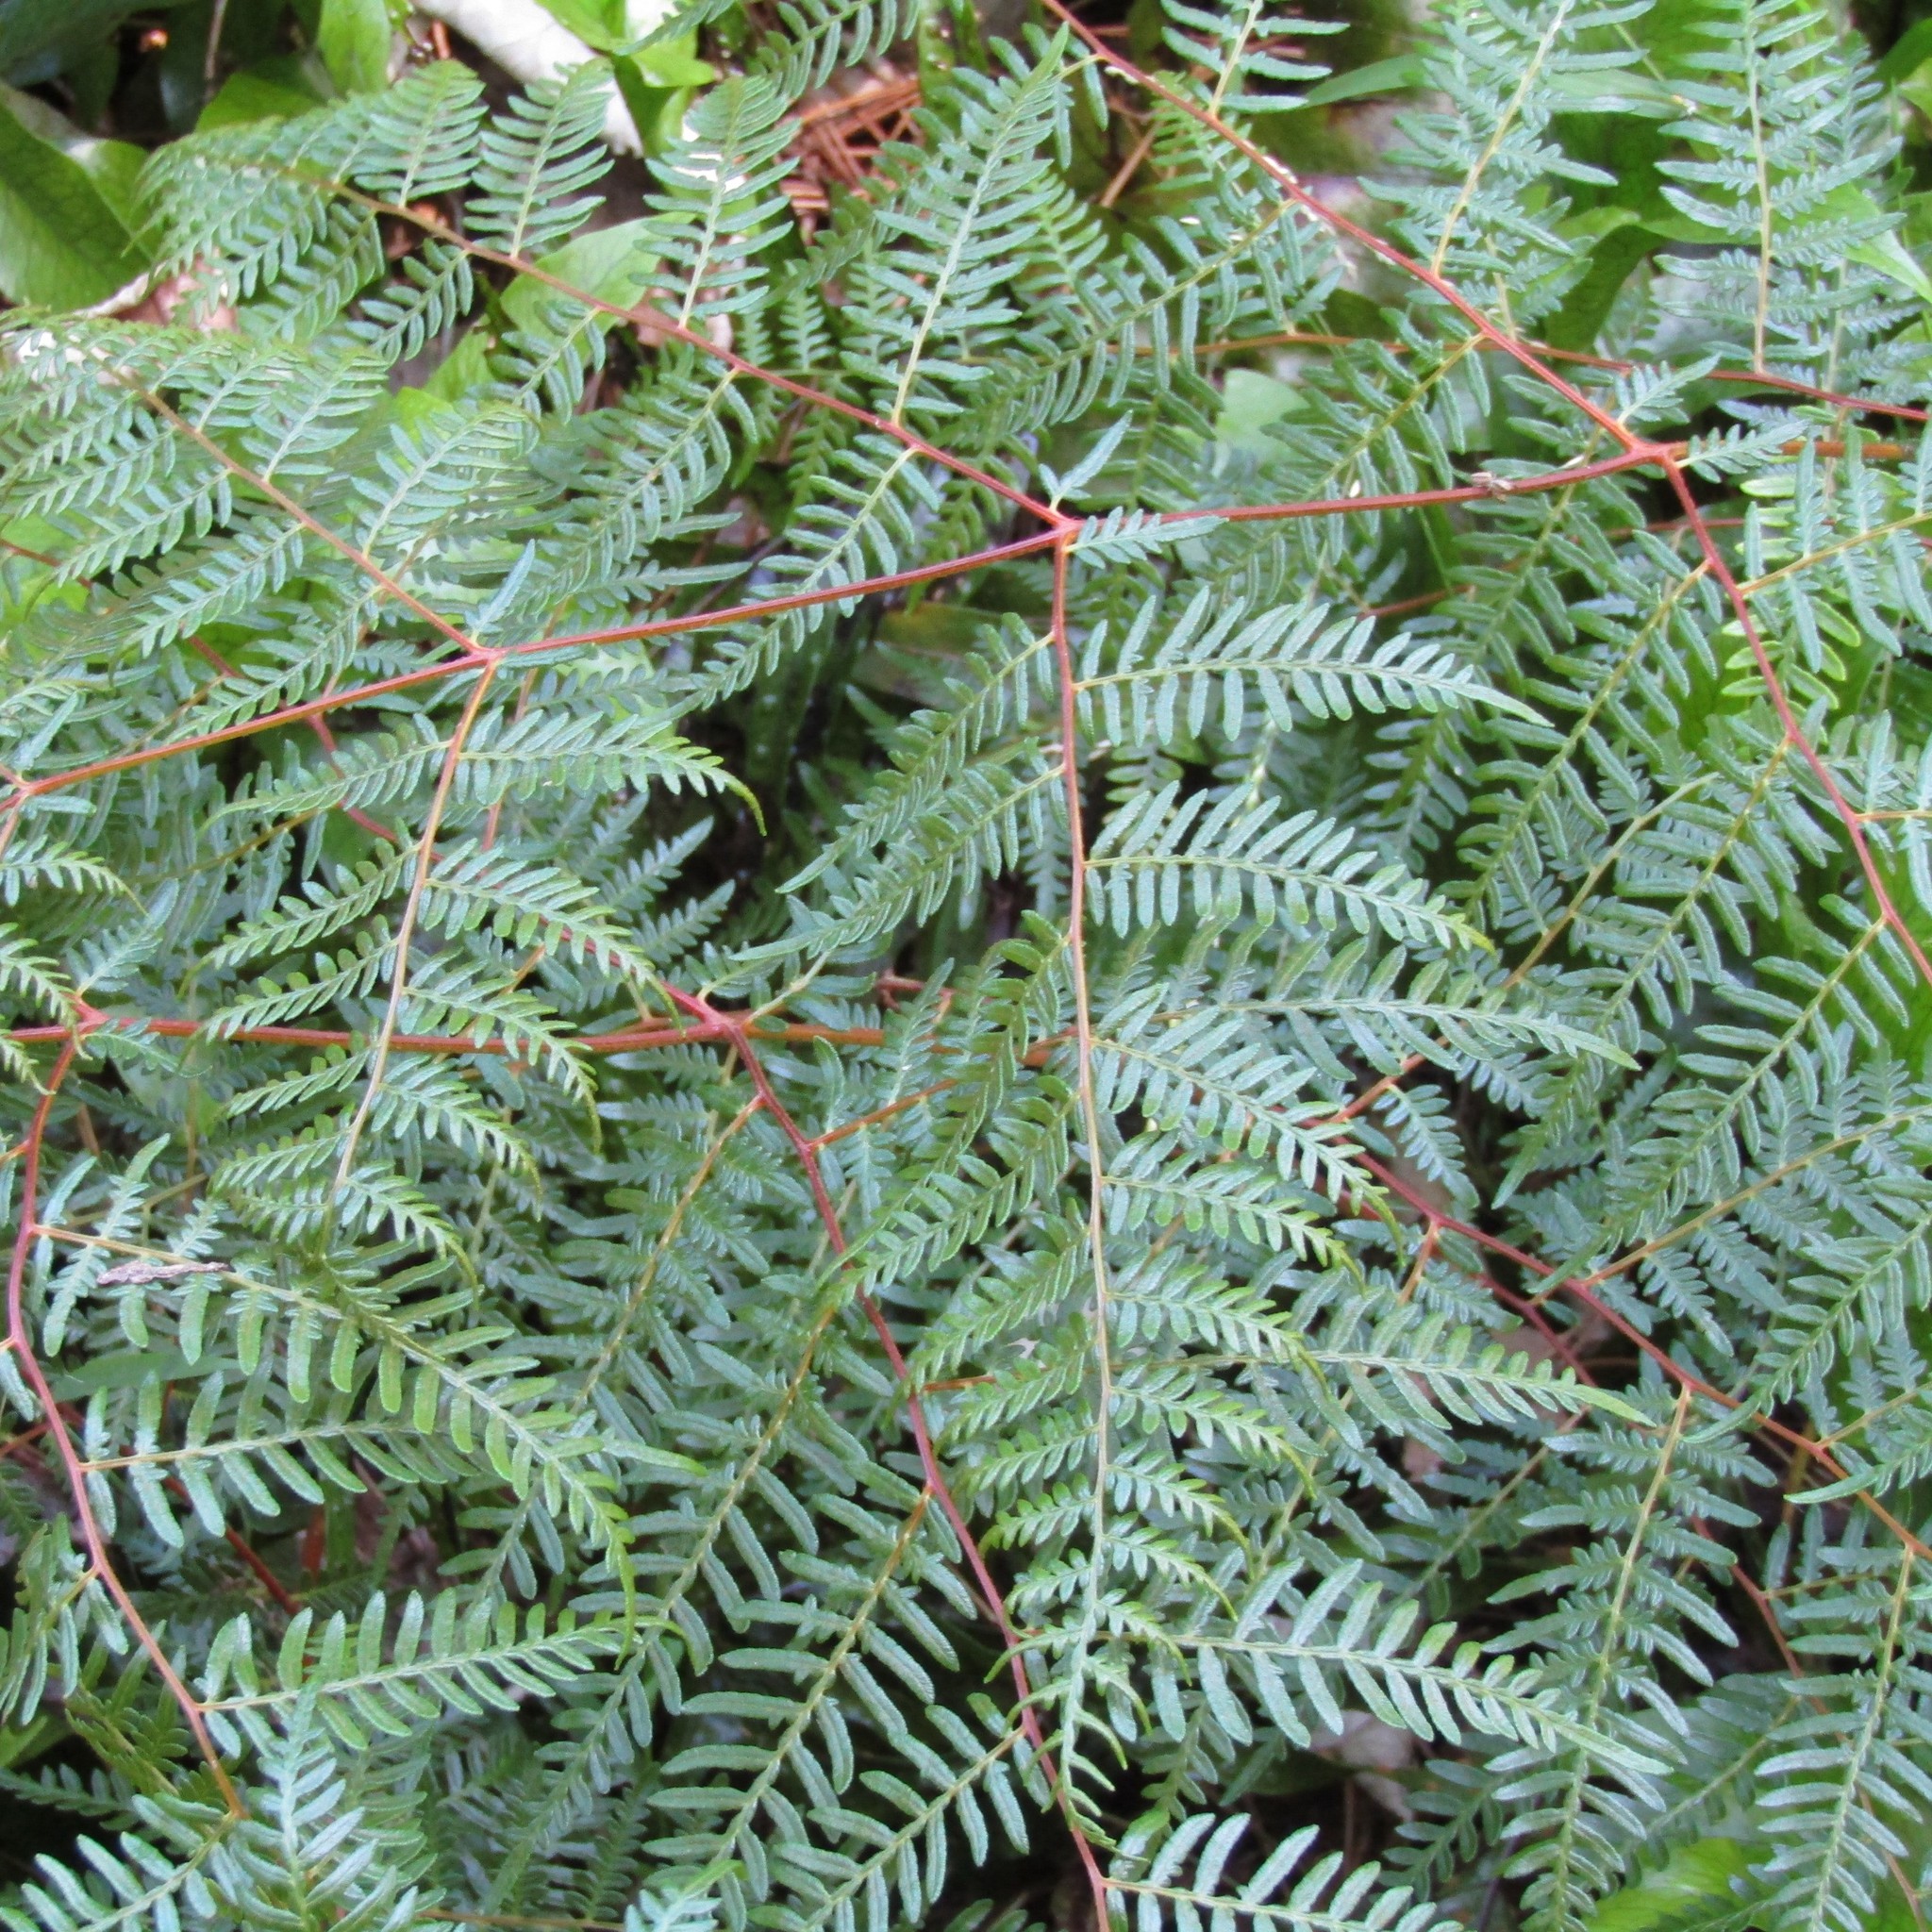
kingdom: Plantae
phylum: Tracheophyta
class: Polypodiopsida
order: Polypodiales
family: Dennstaedtiaceae
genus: Pteridium
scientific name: Pteridium esculentum
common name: Bracken fern
